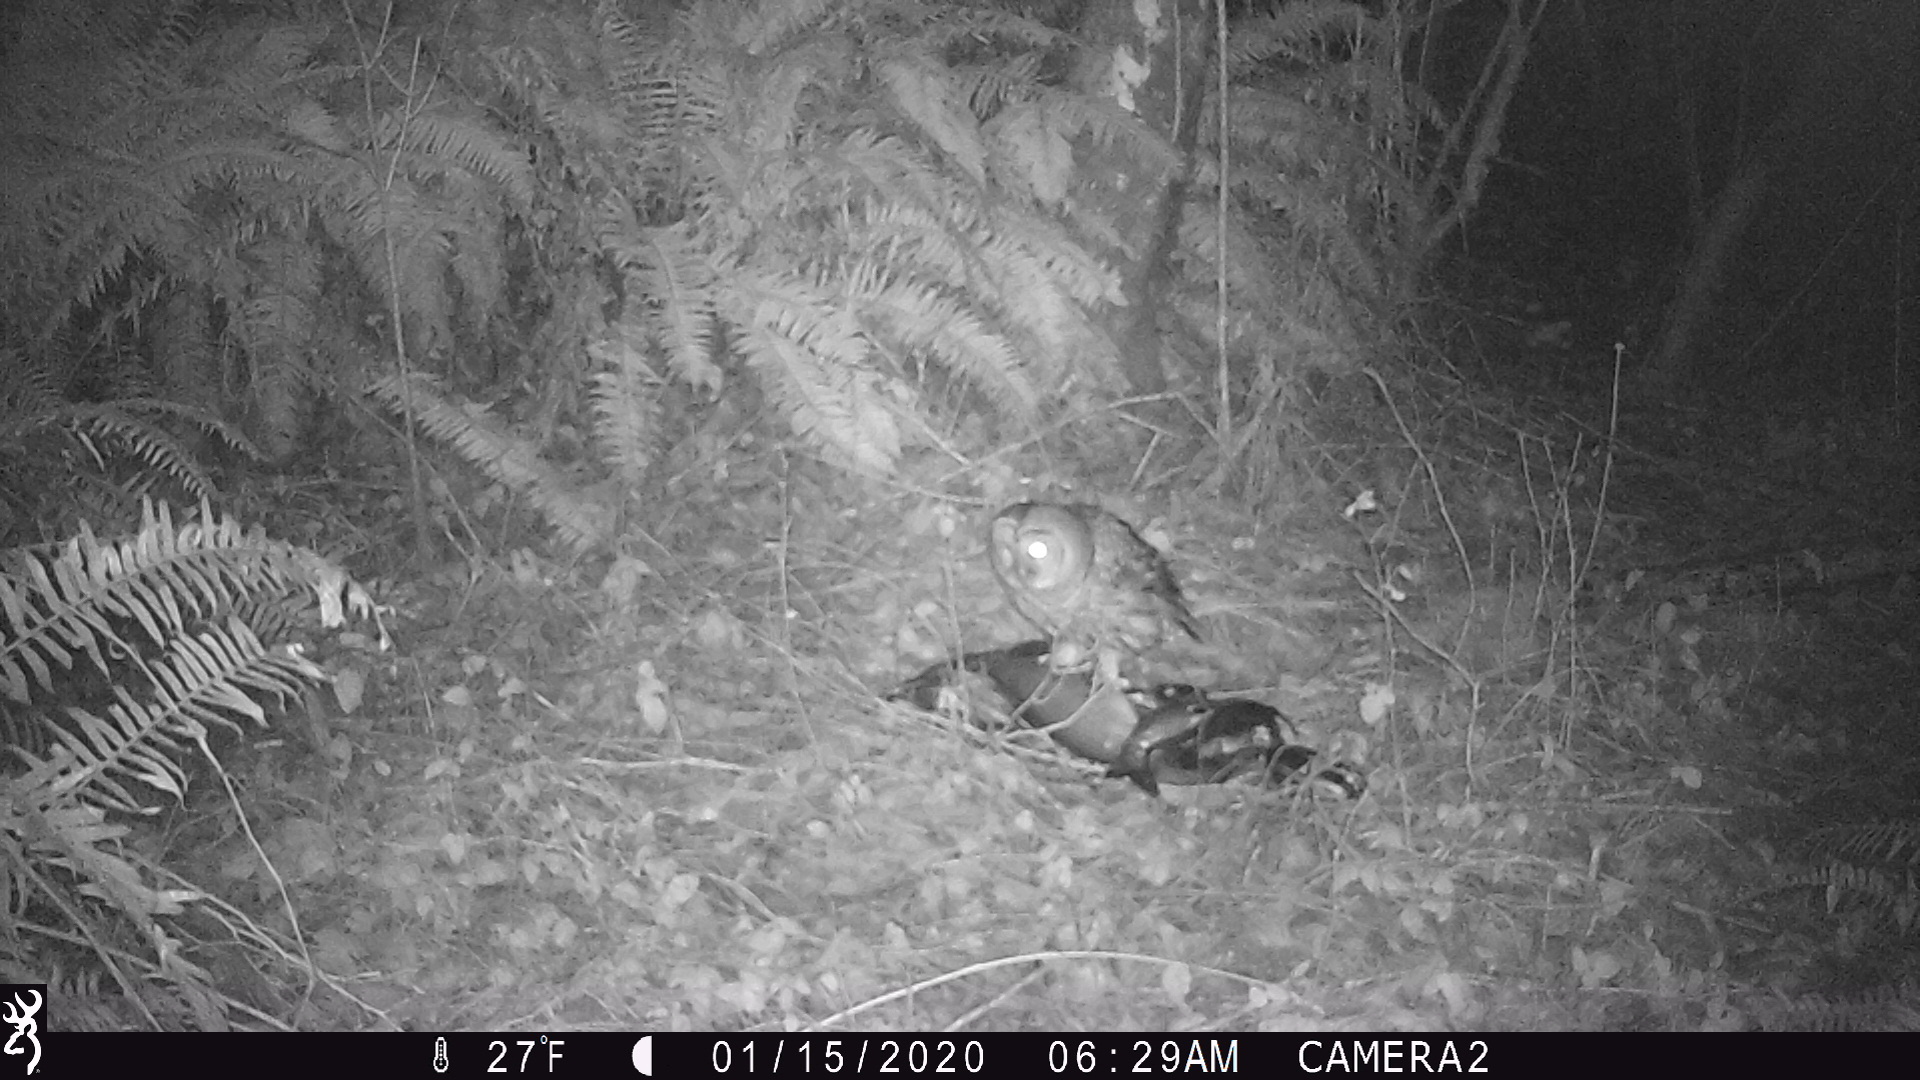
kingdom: Animalia
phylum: Chordata
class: Aves
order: Strigiformes
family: Strigidae
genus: Strix
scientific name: Strix varia
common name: Barred owl
